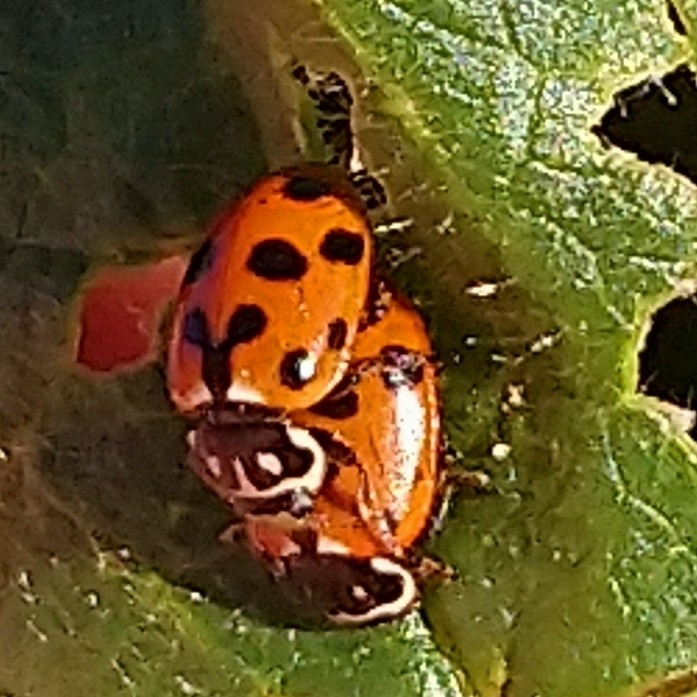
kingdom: Animalia
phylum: Arthropoda
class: Insecta
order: Coleoptera
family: Coccinellidae
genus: Hippodamia
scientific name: Hippodamia variegata
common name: Ladybird beetle
